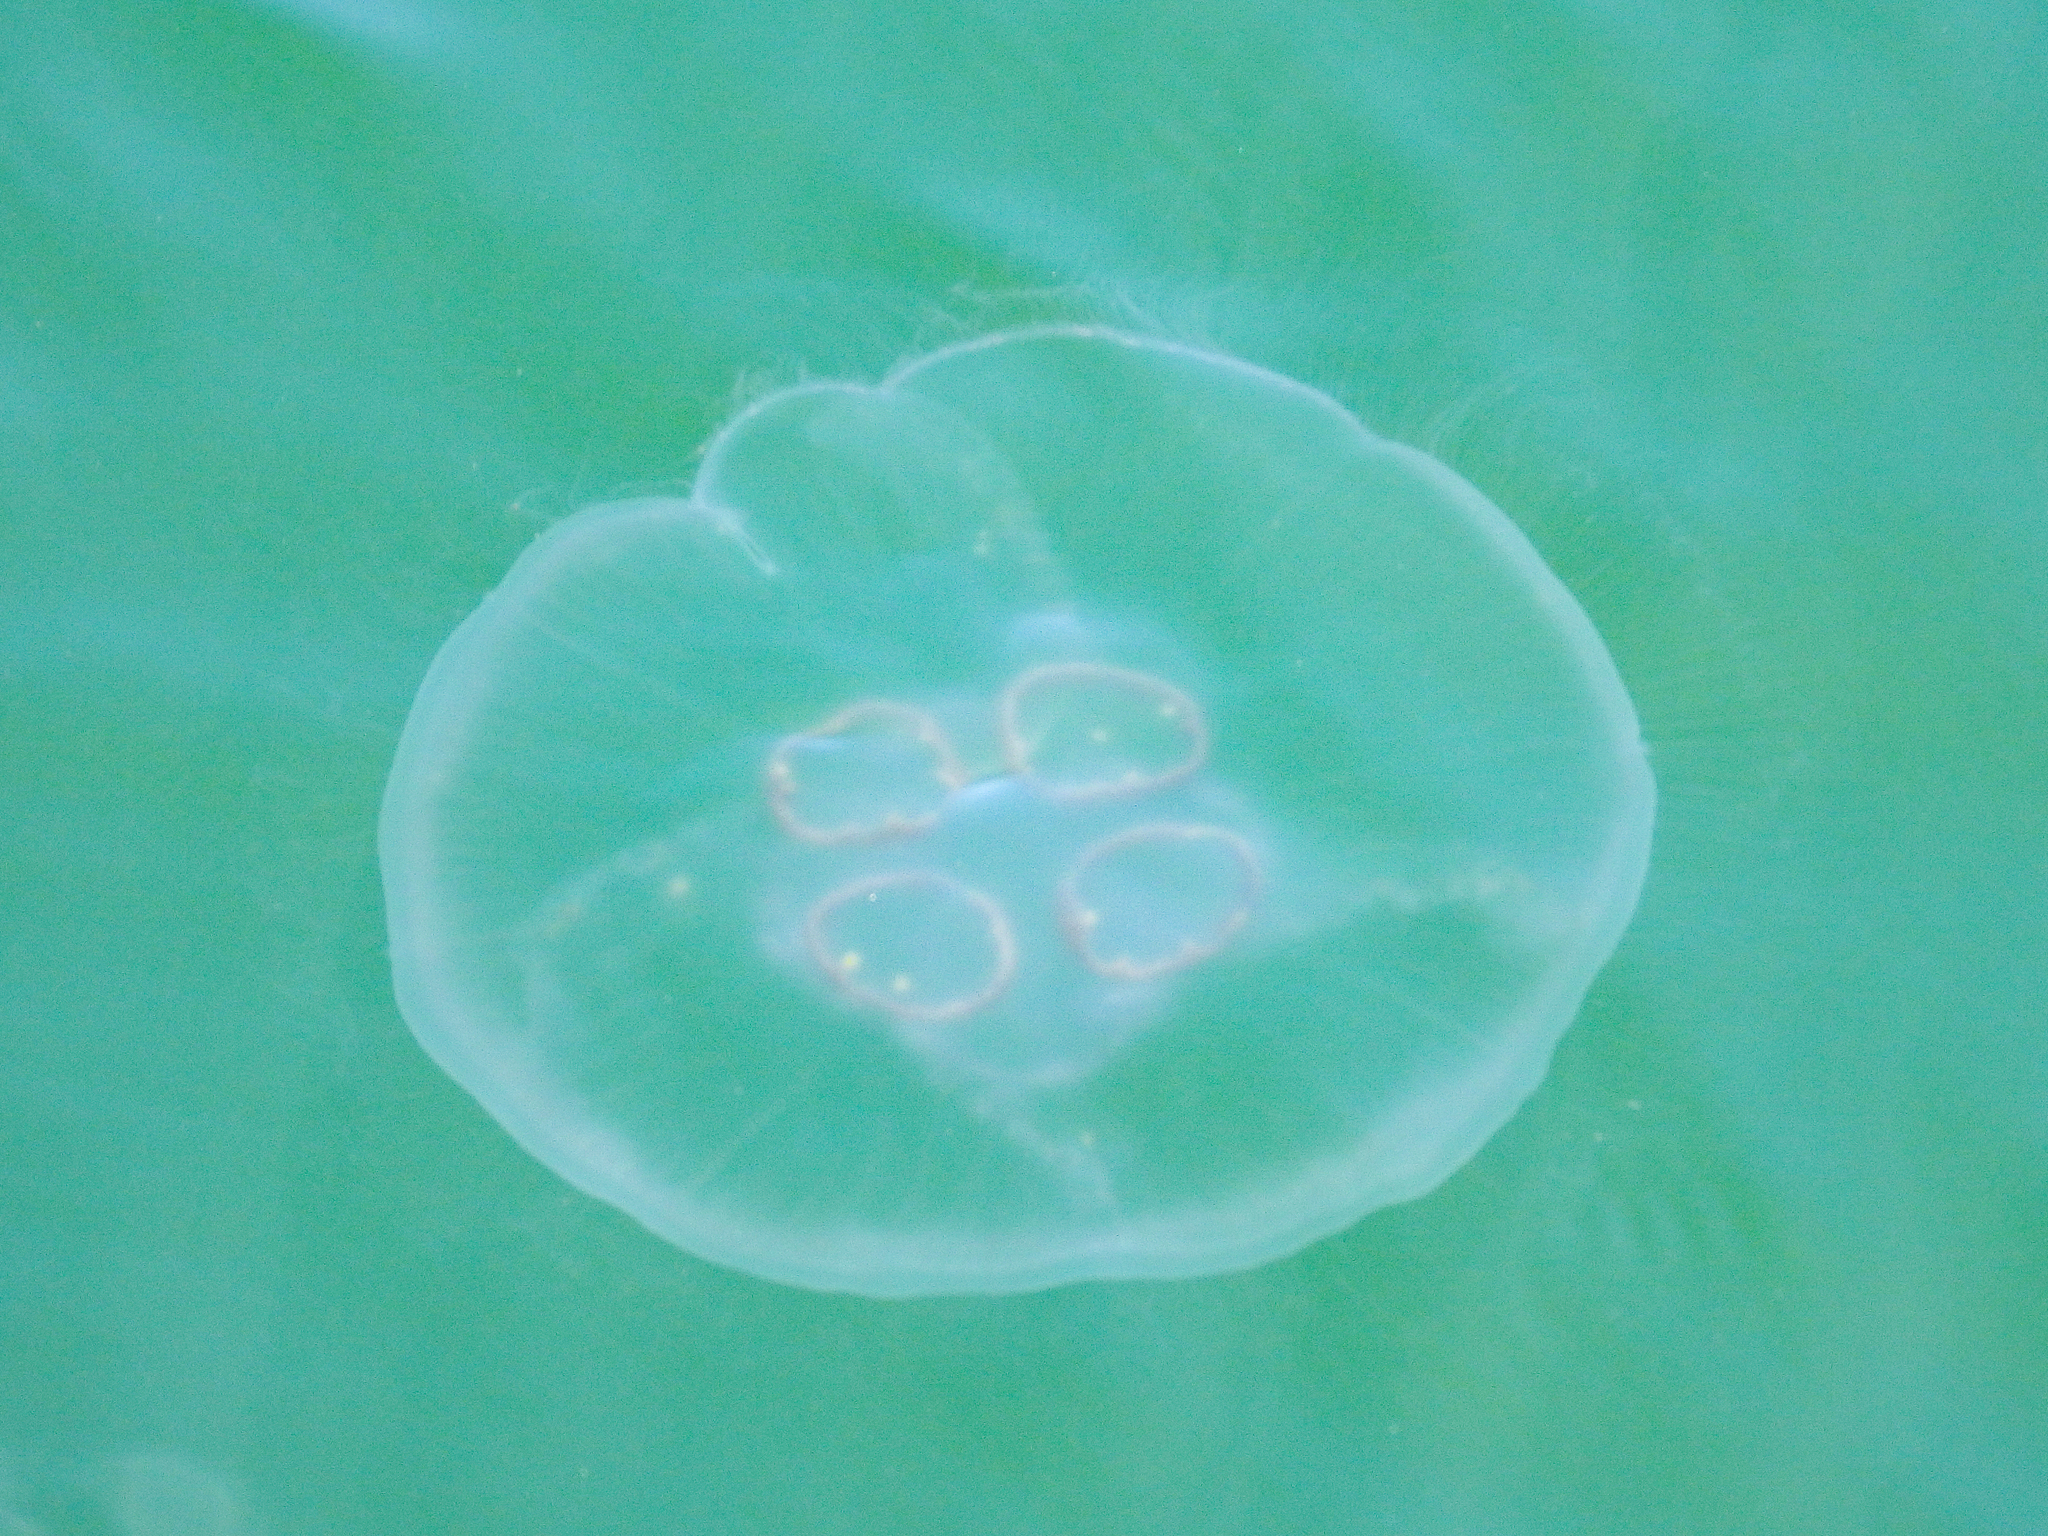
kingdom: Animalia
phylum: Cnidaria
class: Scyphozoa
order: Semaeostomeae
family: Ulmaridae
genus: Aurelia
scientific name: Aurelia coerulea
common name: Moon jellyfish
